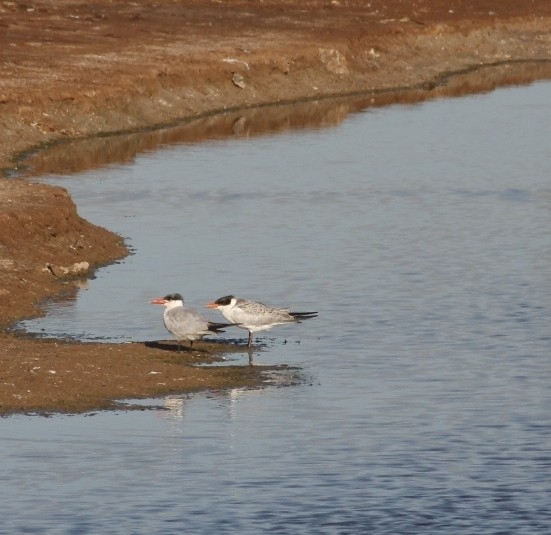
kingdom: Animalia
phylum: Chordata
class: Aves
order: Charadriiformes
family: Laridae
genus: Hydroprogne
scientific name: Hydroprogne caspia
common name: Caspian tern
